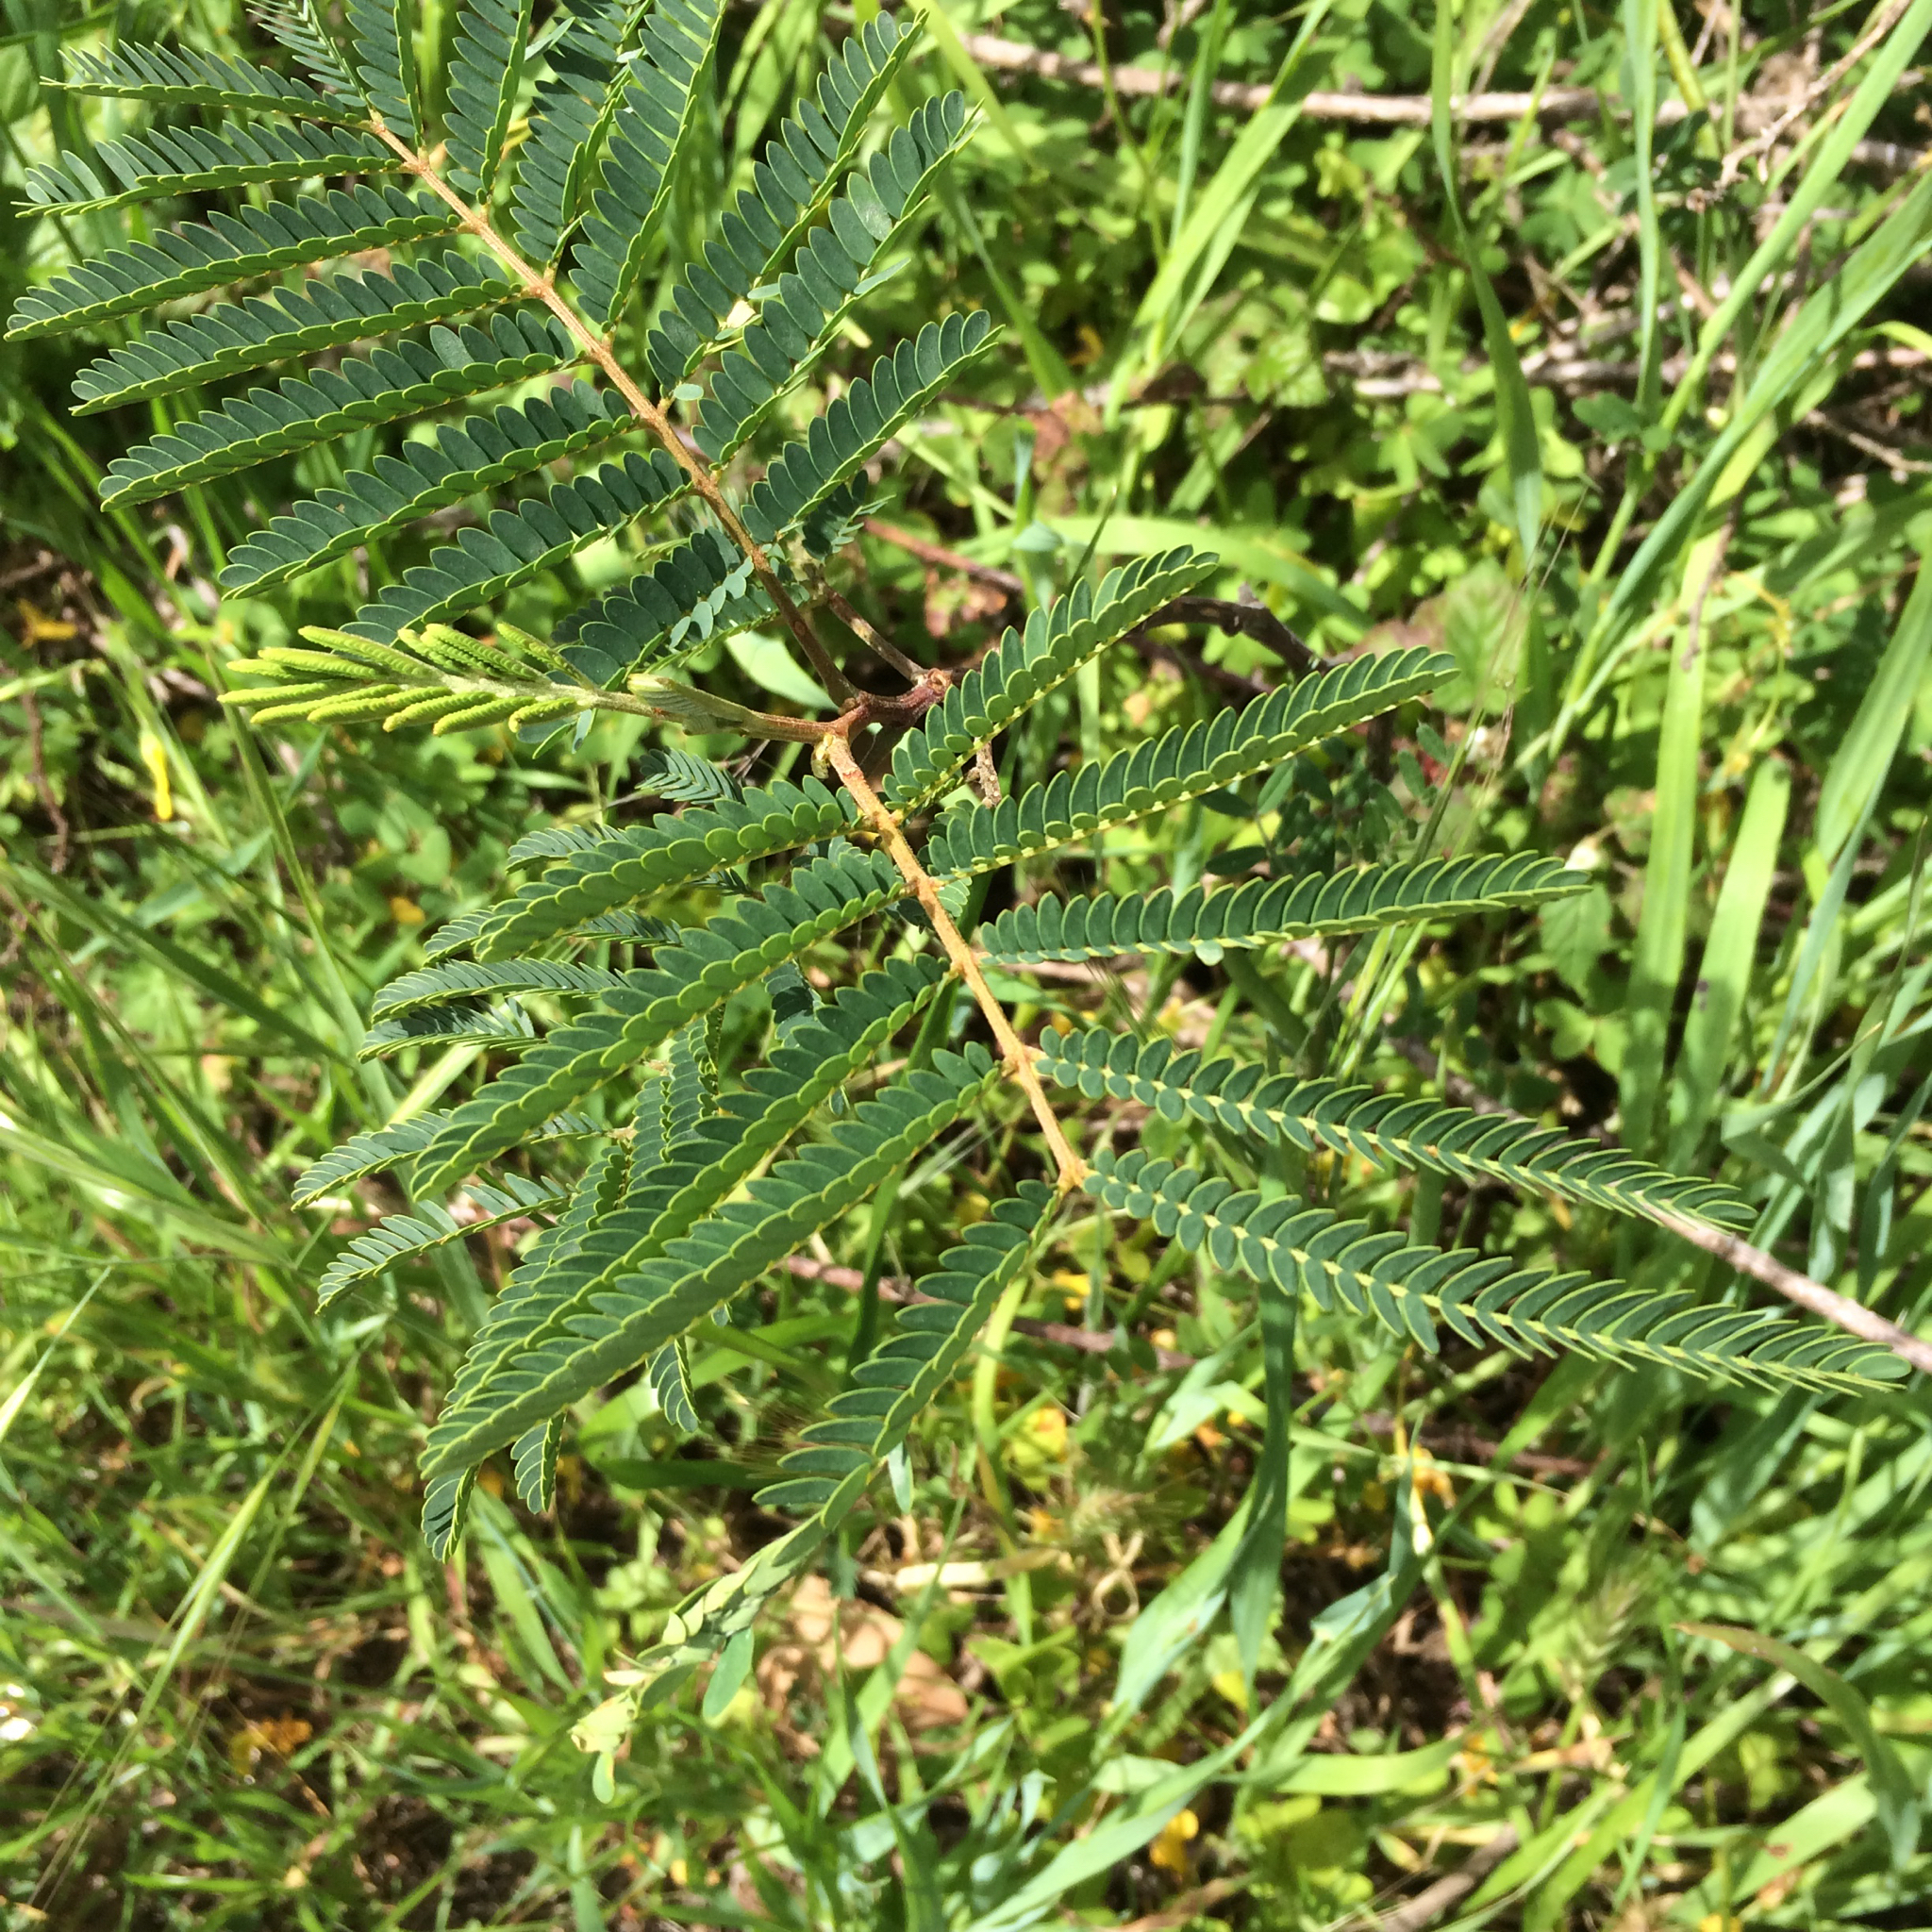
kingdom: Plantae
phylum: Tracheophyta
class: Magnoliopsida
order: Fabales
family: Fabaceae
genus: Paraserianthes
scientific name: Paraserianthes lophantha
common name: Plume albizia
